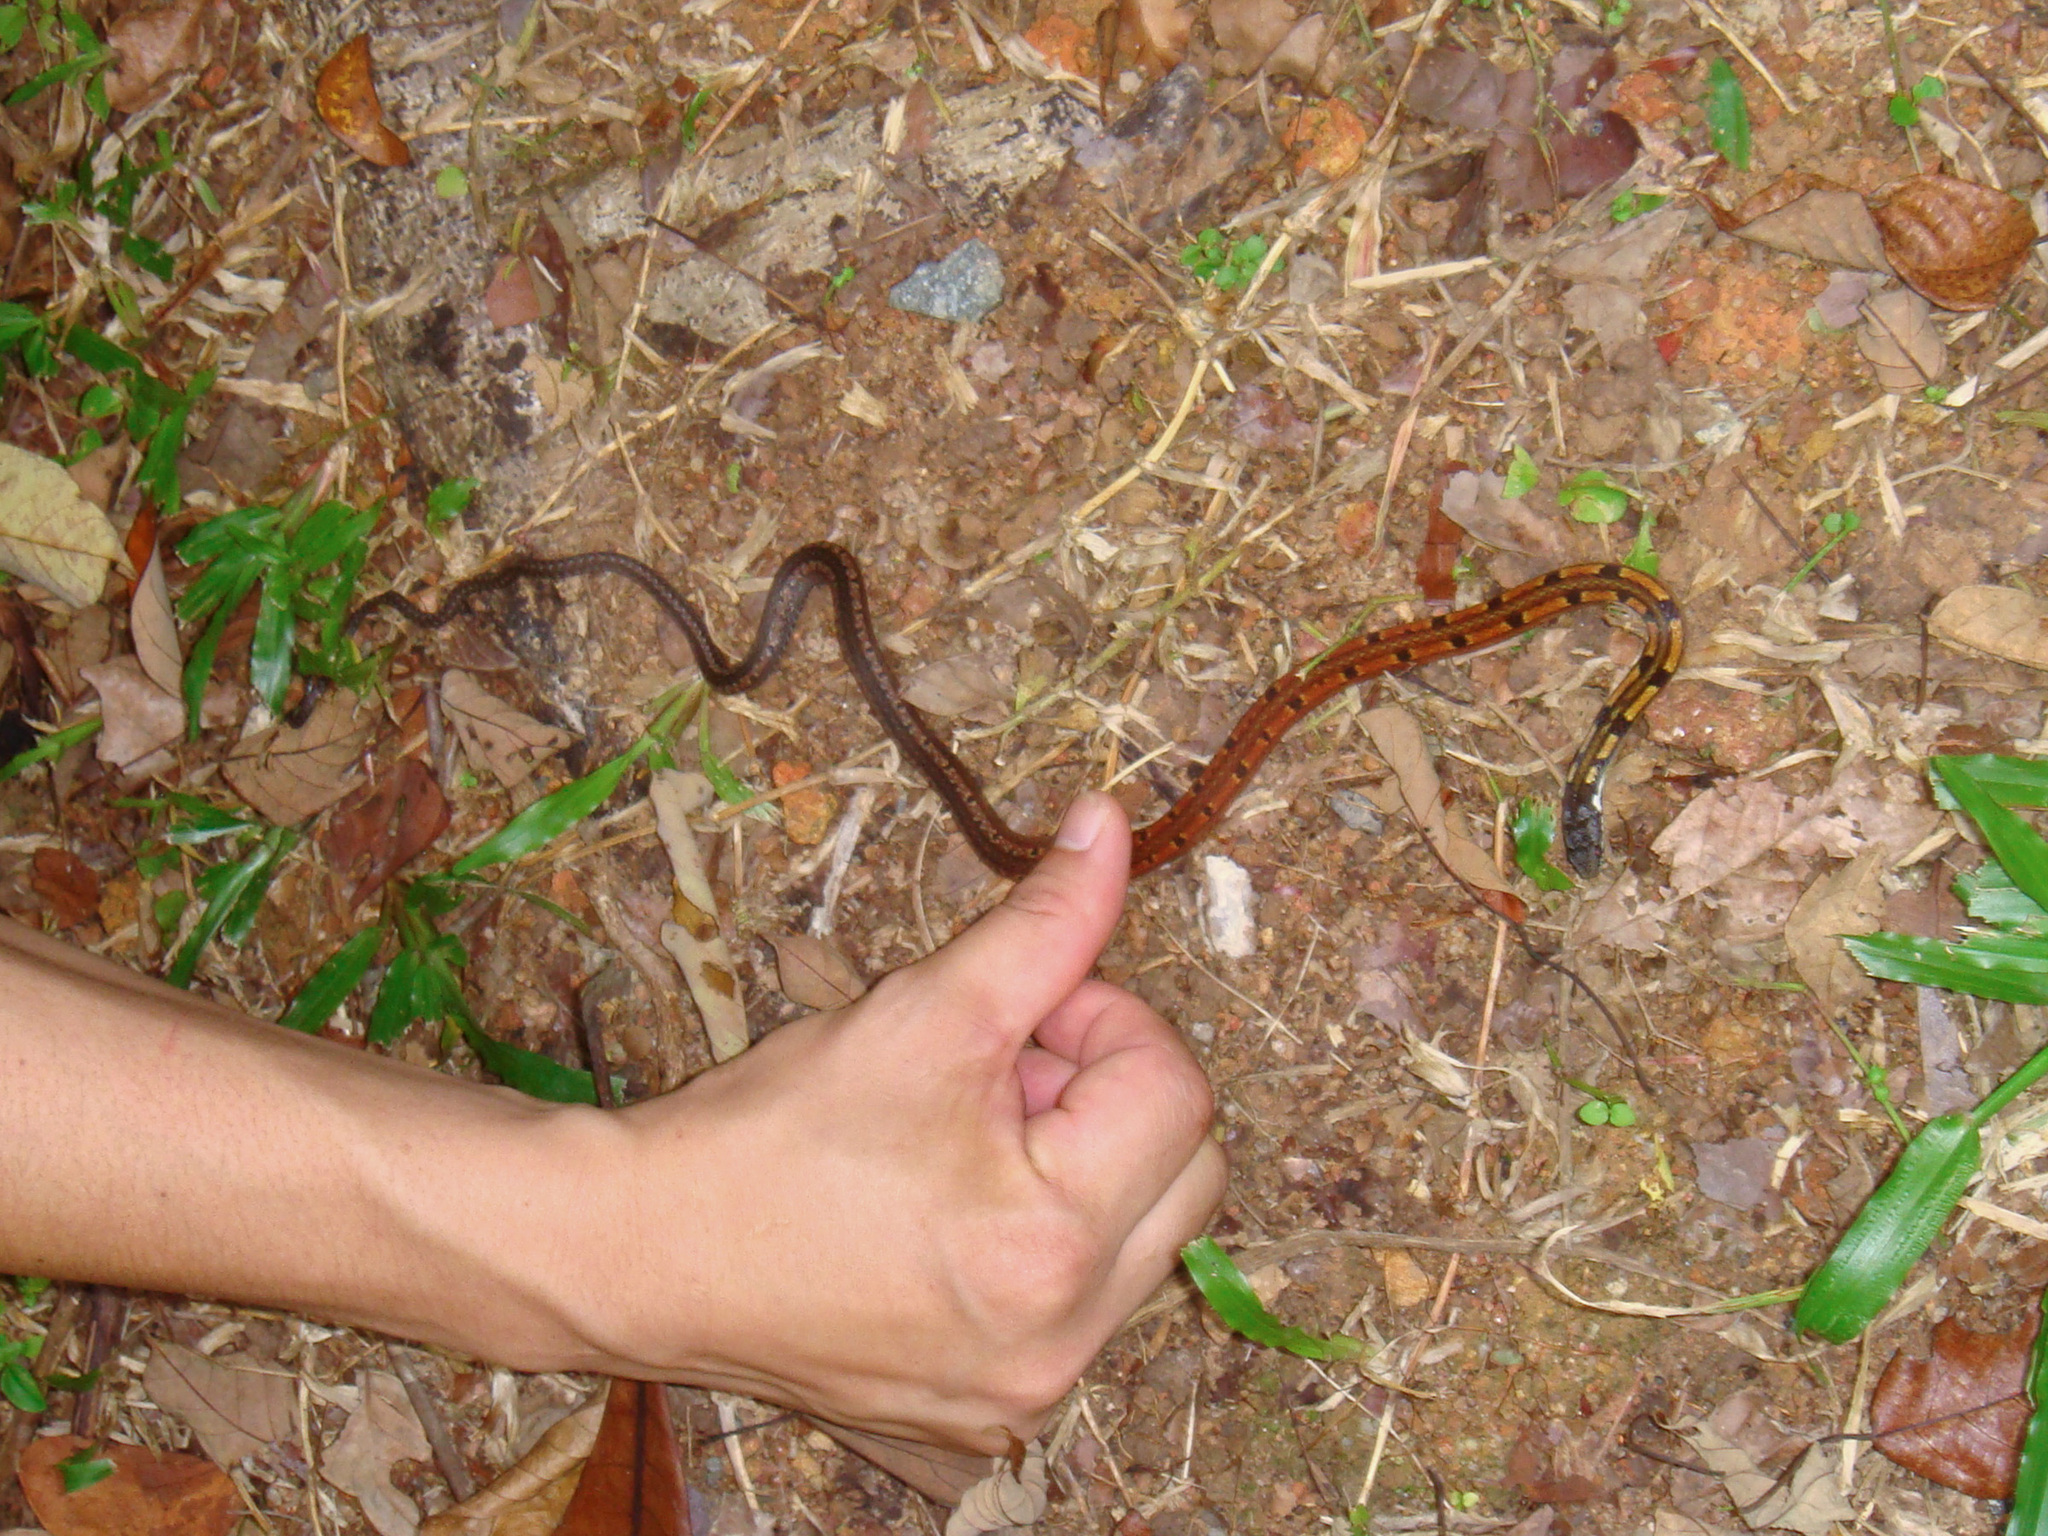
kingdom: Animalia
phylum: Chordata
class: Squamata
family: Colubridae
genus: Sibynophis
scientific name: Sibynophis melanocephalus
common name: Black-headed collared snake
